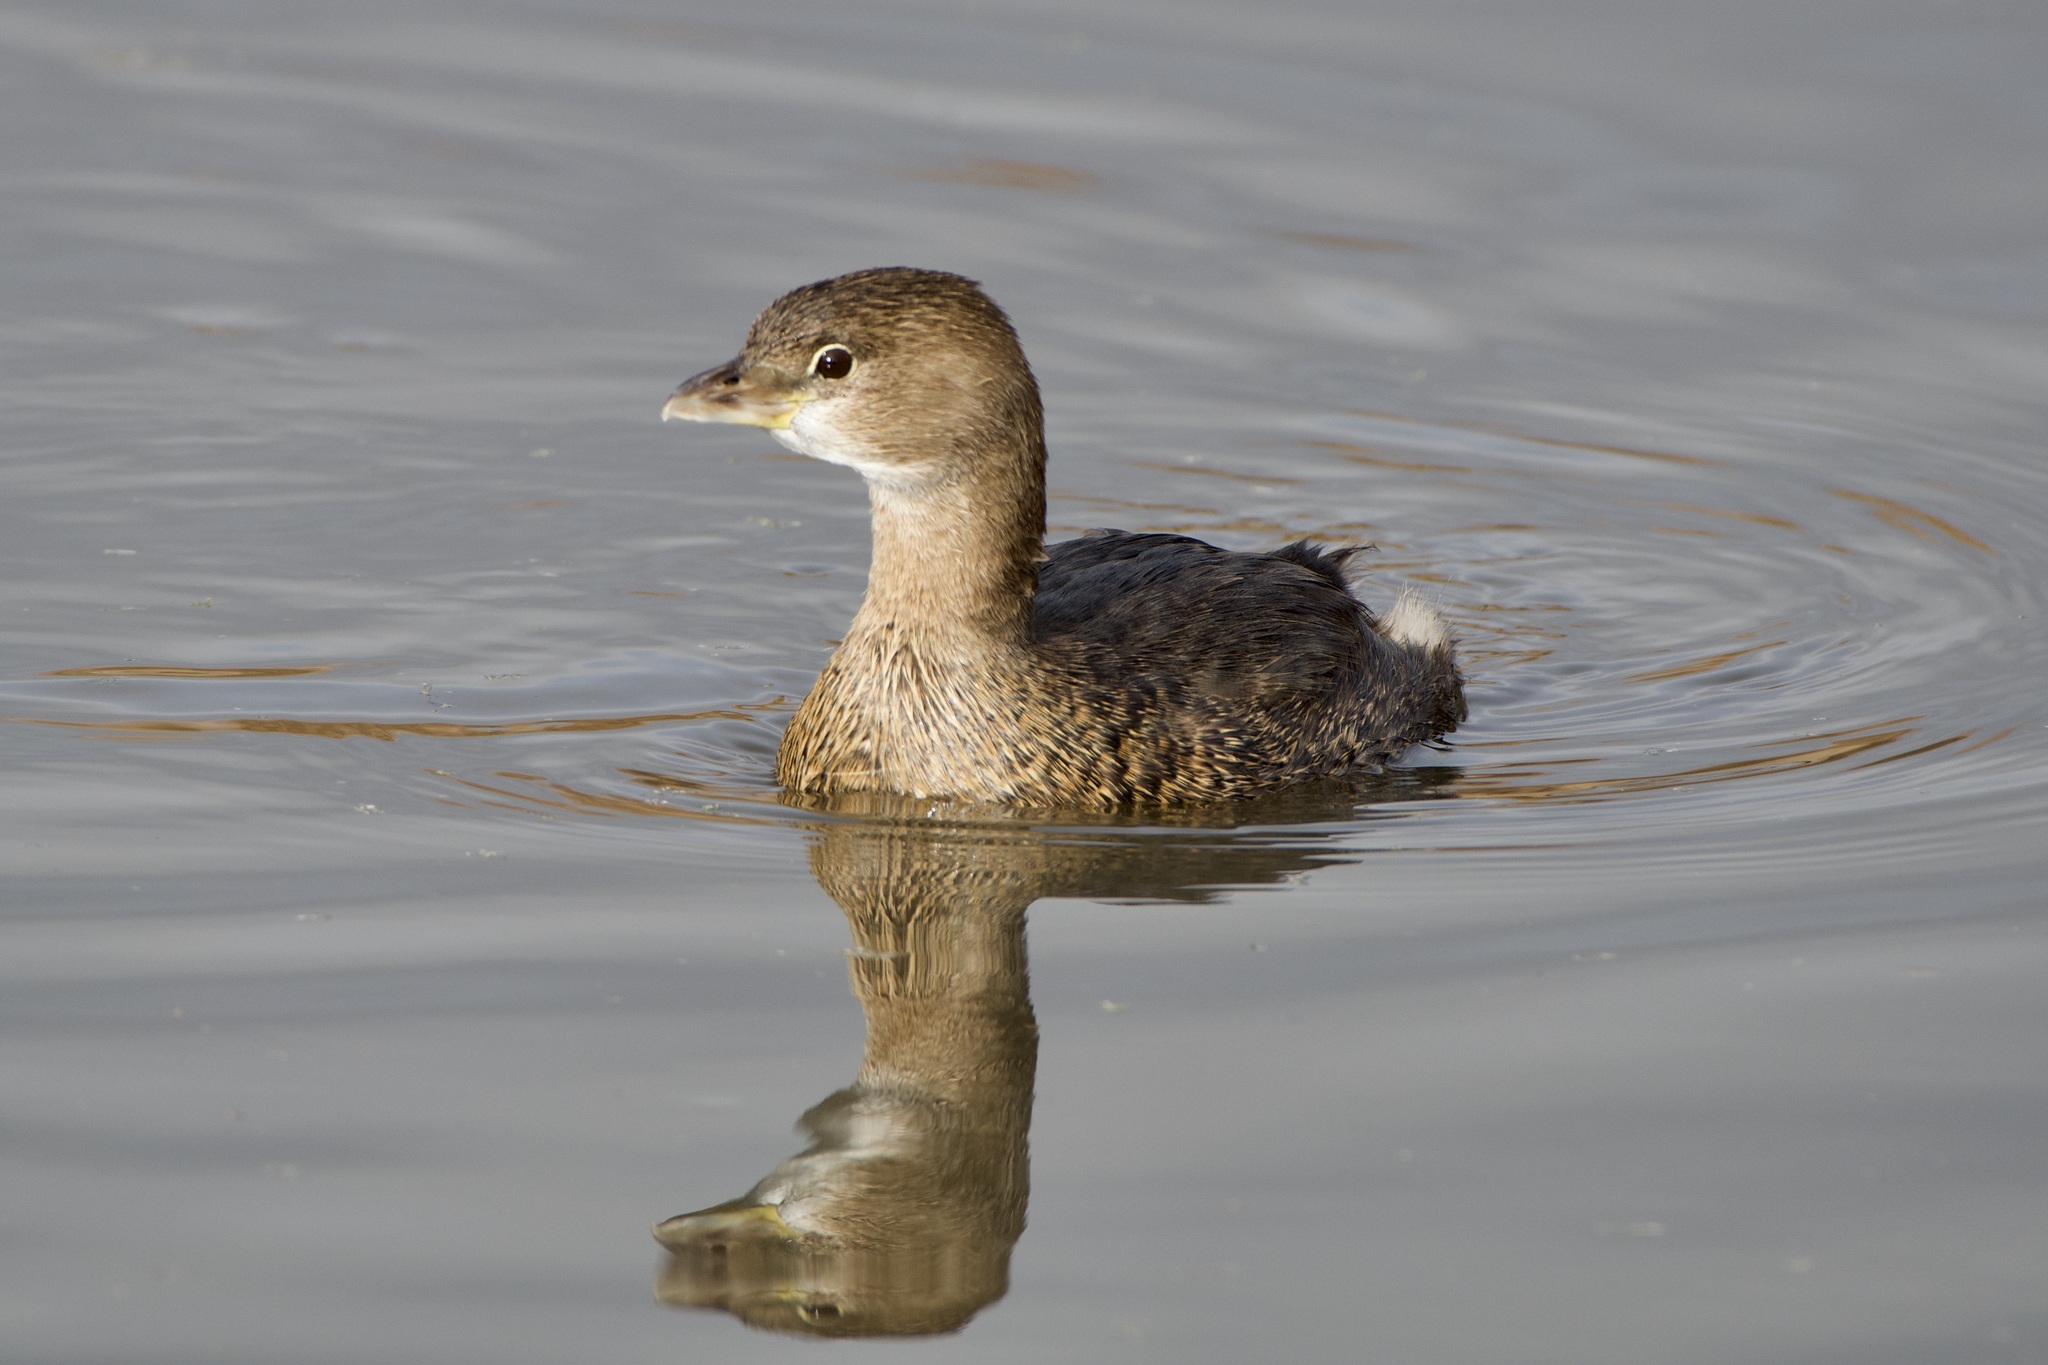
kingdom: Animalia
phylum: Chordata
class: Aves
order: Podicipediformes
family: Podicipedidae
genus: Podilymbus
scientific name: Podilymbus podiceps
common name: Pied-billed grebe
